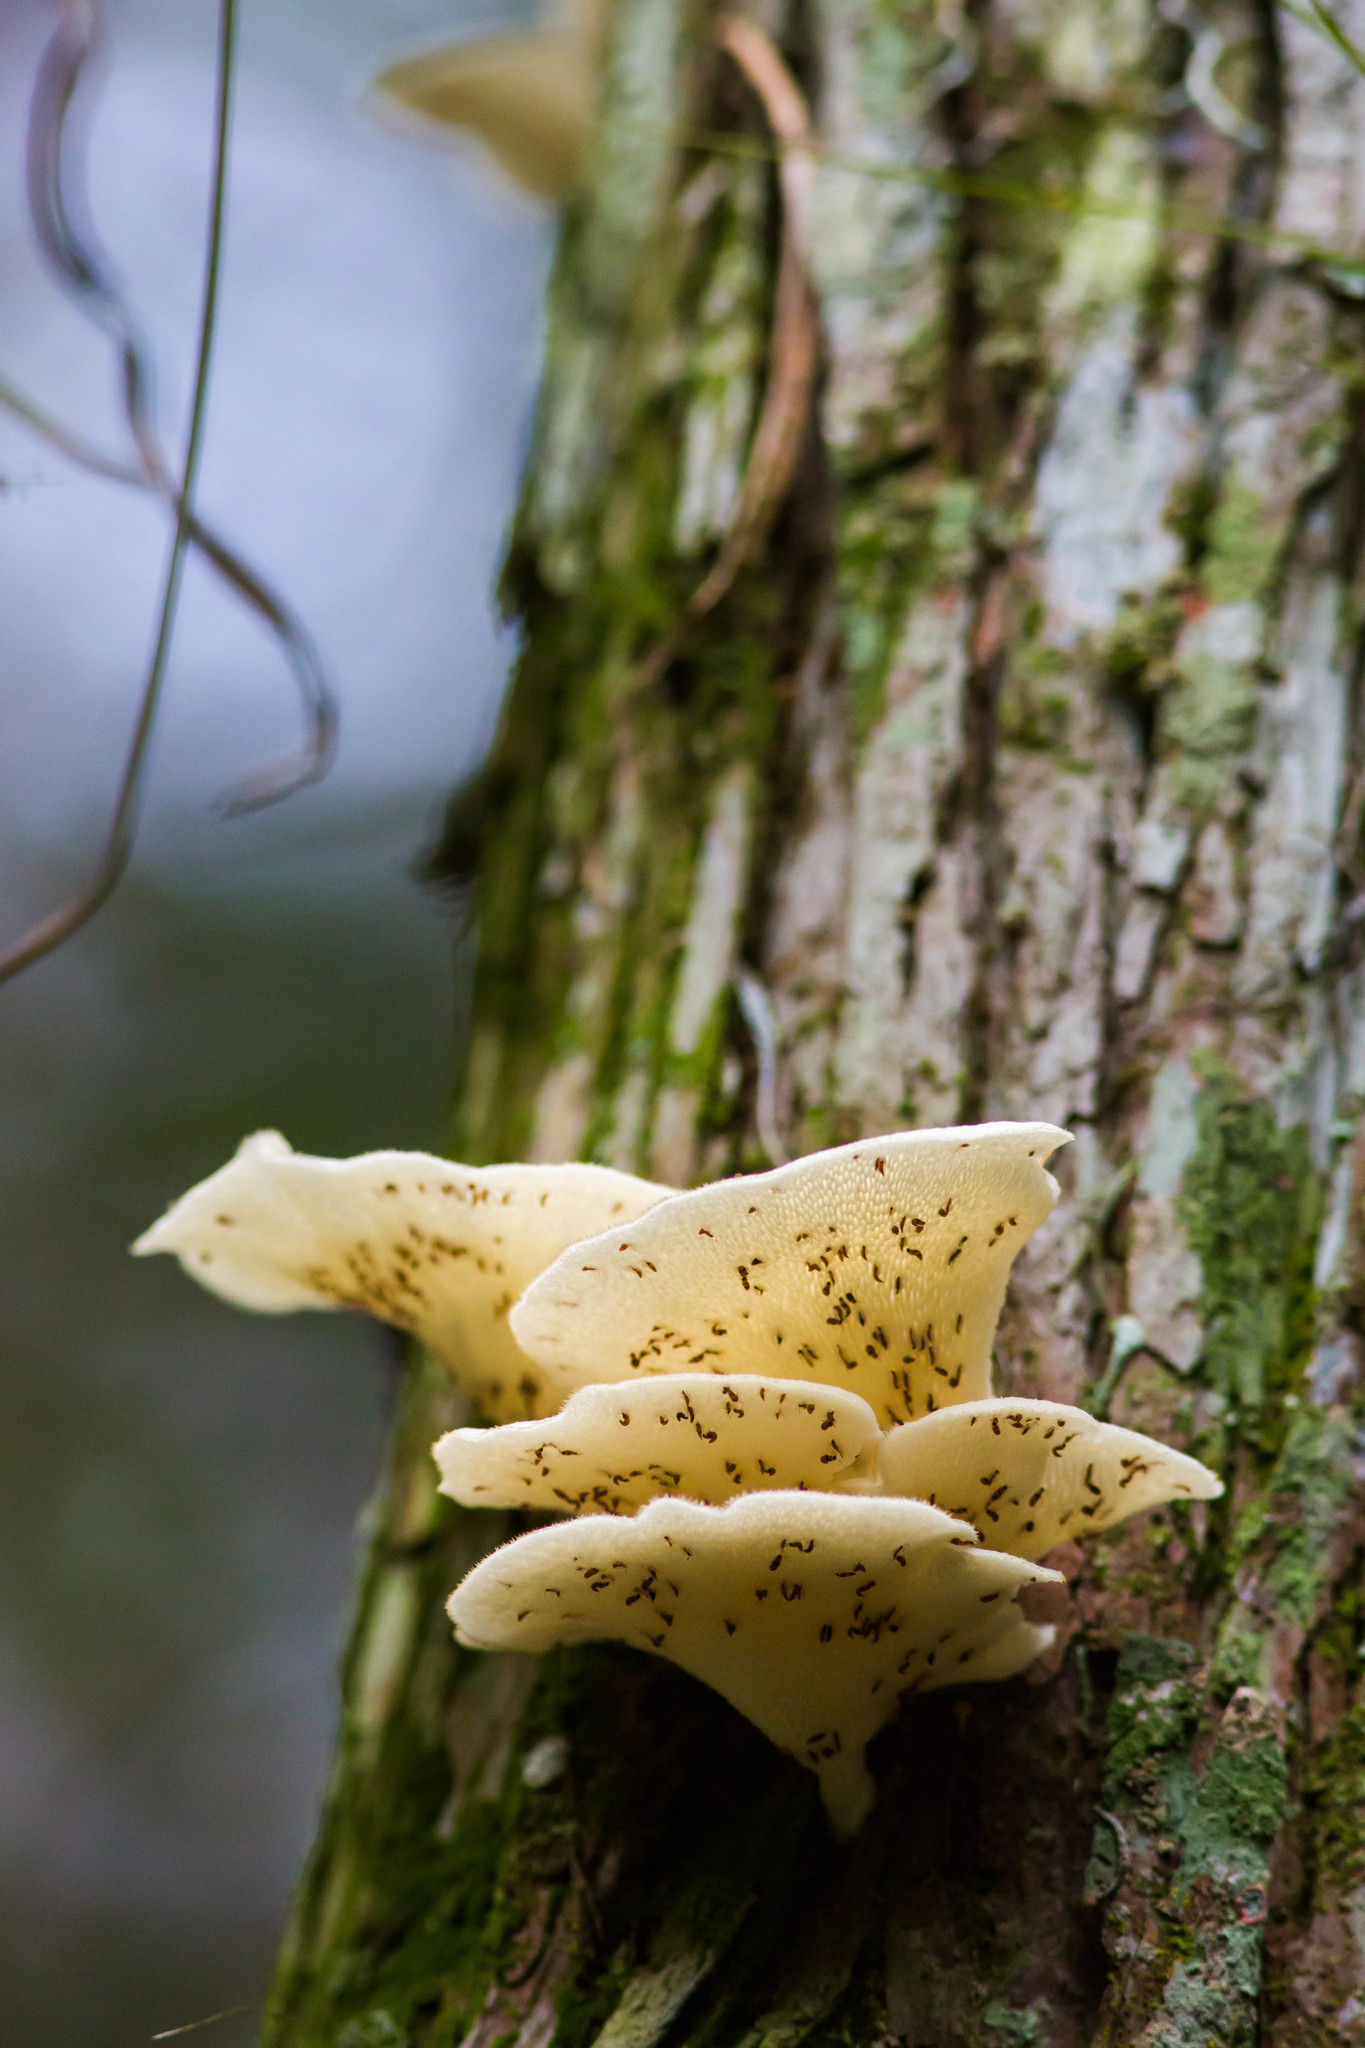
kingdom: Fungi
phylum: Basidiomycota
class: Agaricomycetes
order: Polyporales
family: Polyporaceae
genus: Favolus
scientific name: Favolus tenuiculus
